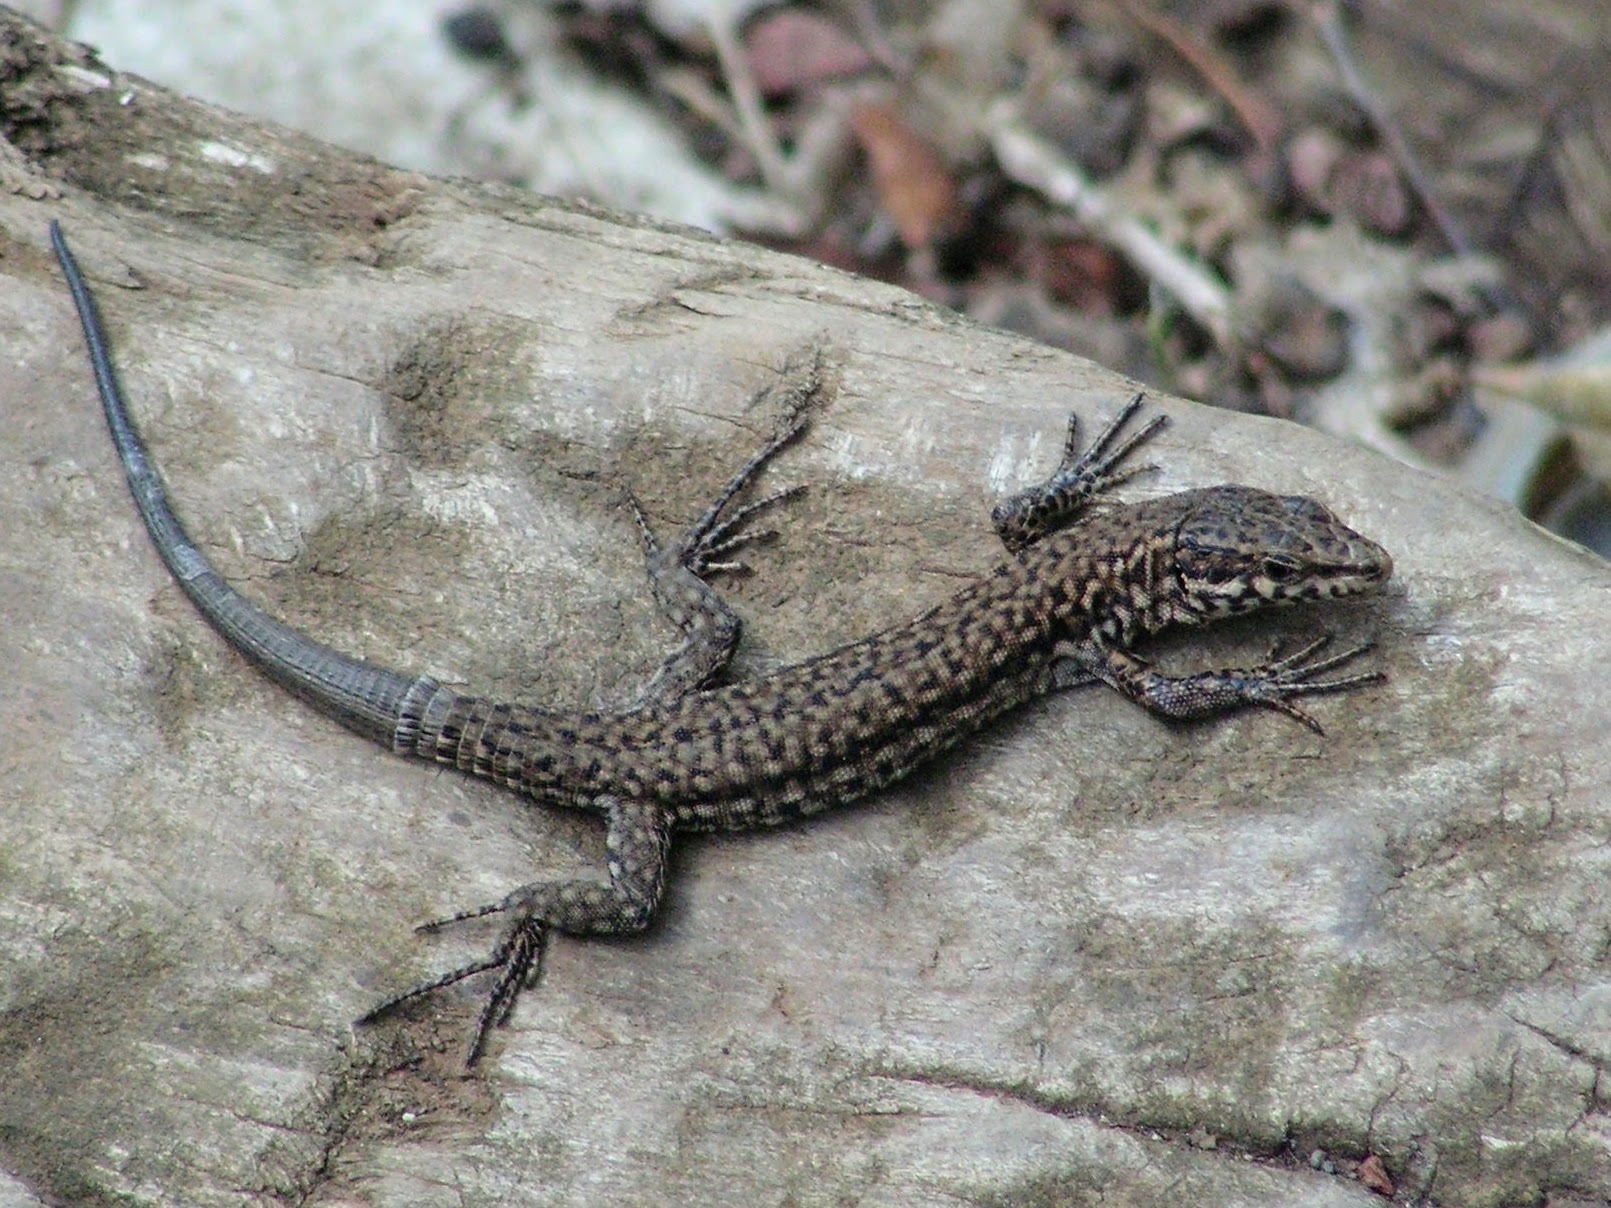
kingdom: Animalia
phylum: Chordata
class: Squamata
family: Lacertidae
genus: Podarcis
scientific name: Podarcis muralis
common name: Common wall lizard
